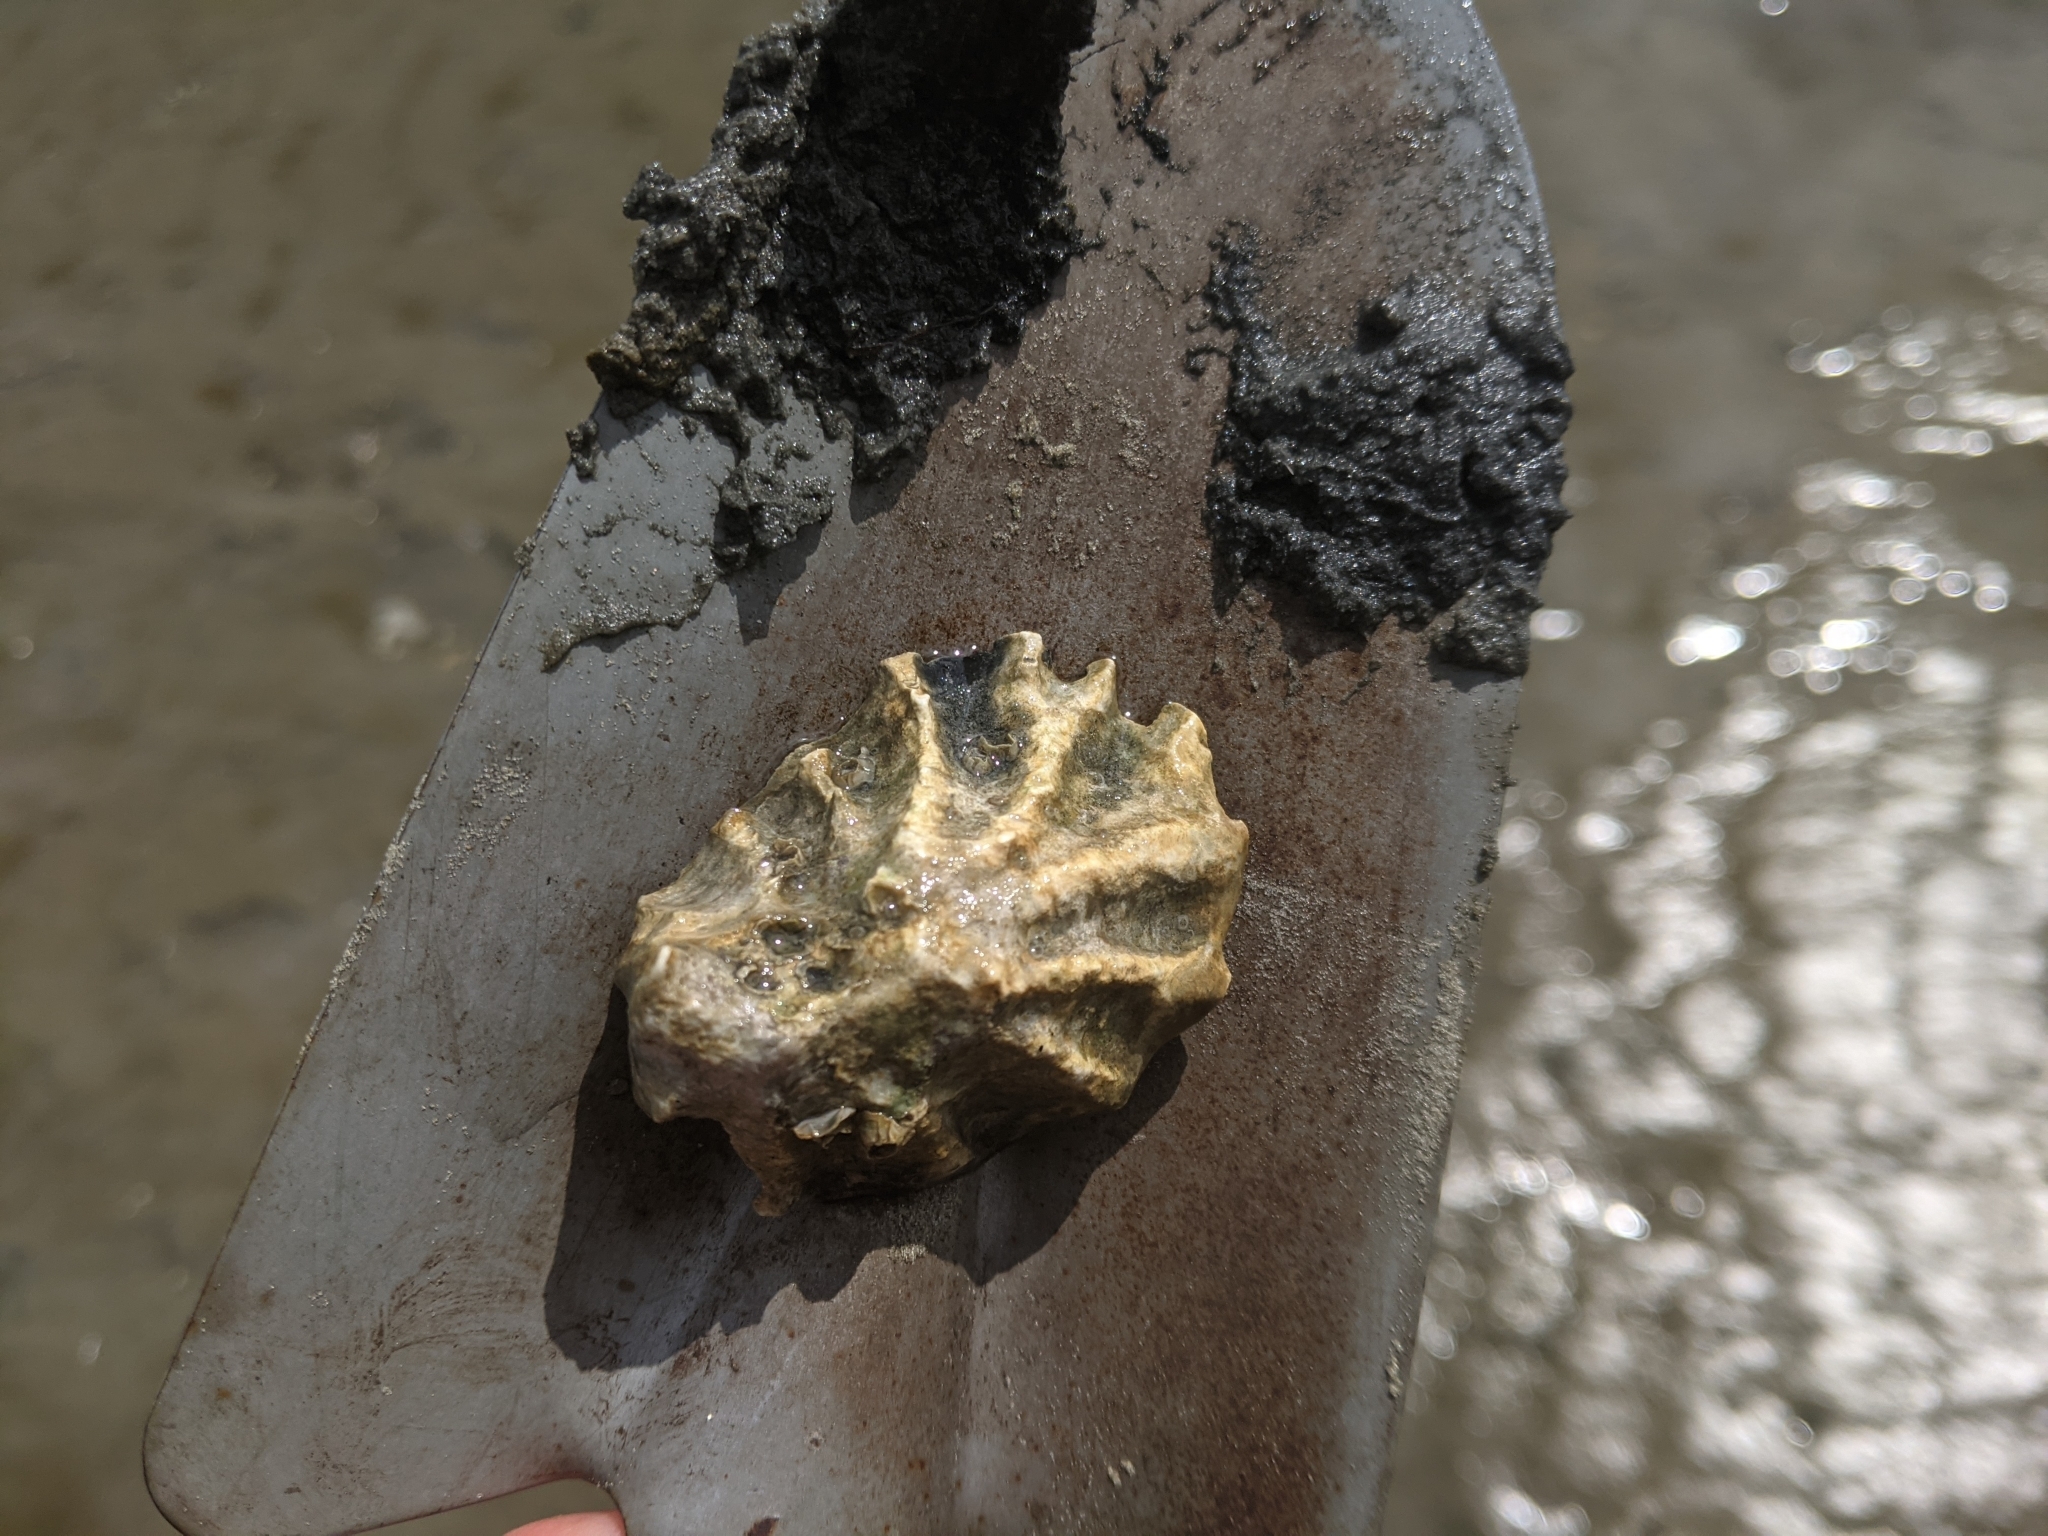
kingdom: Animalia
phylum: Mollusca
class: Bivalvia
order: Ostreida
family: Ostreidae
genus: Magallana
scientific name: Magallana gigas
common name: Pacific oyster
